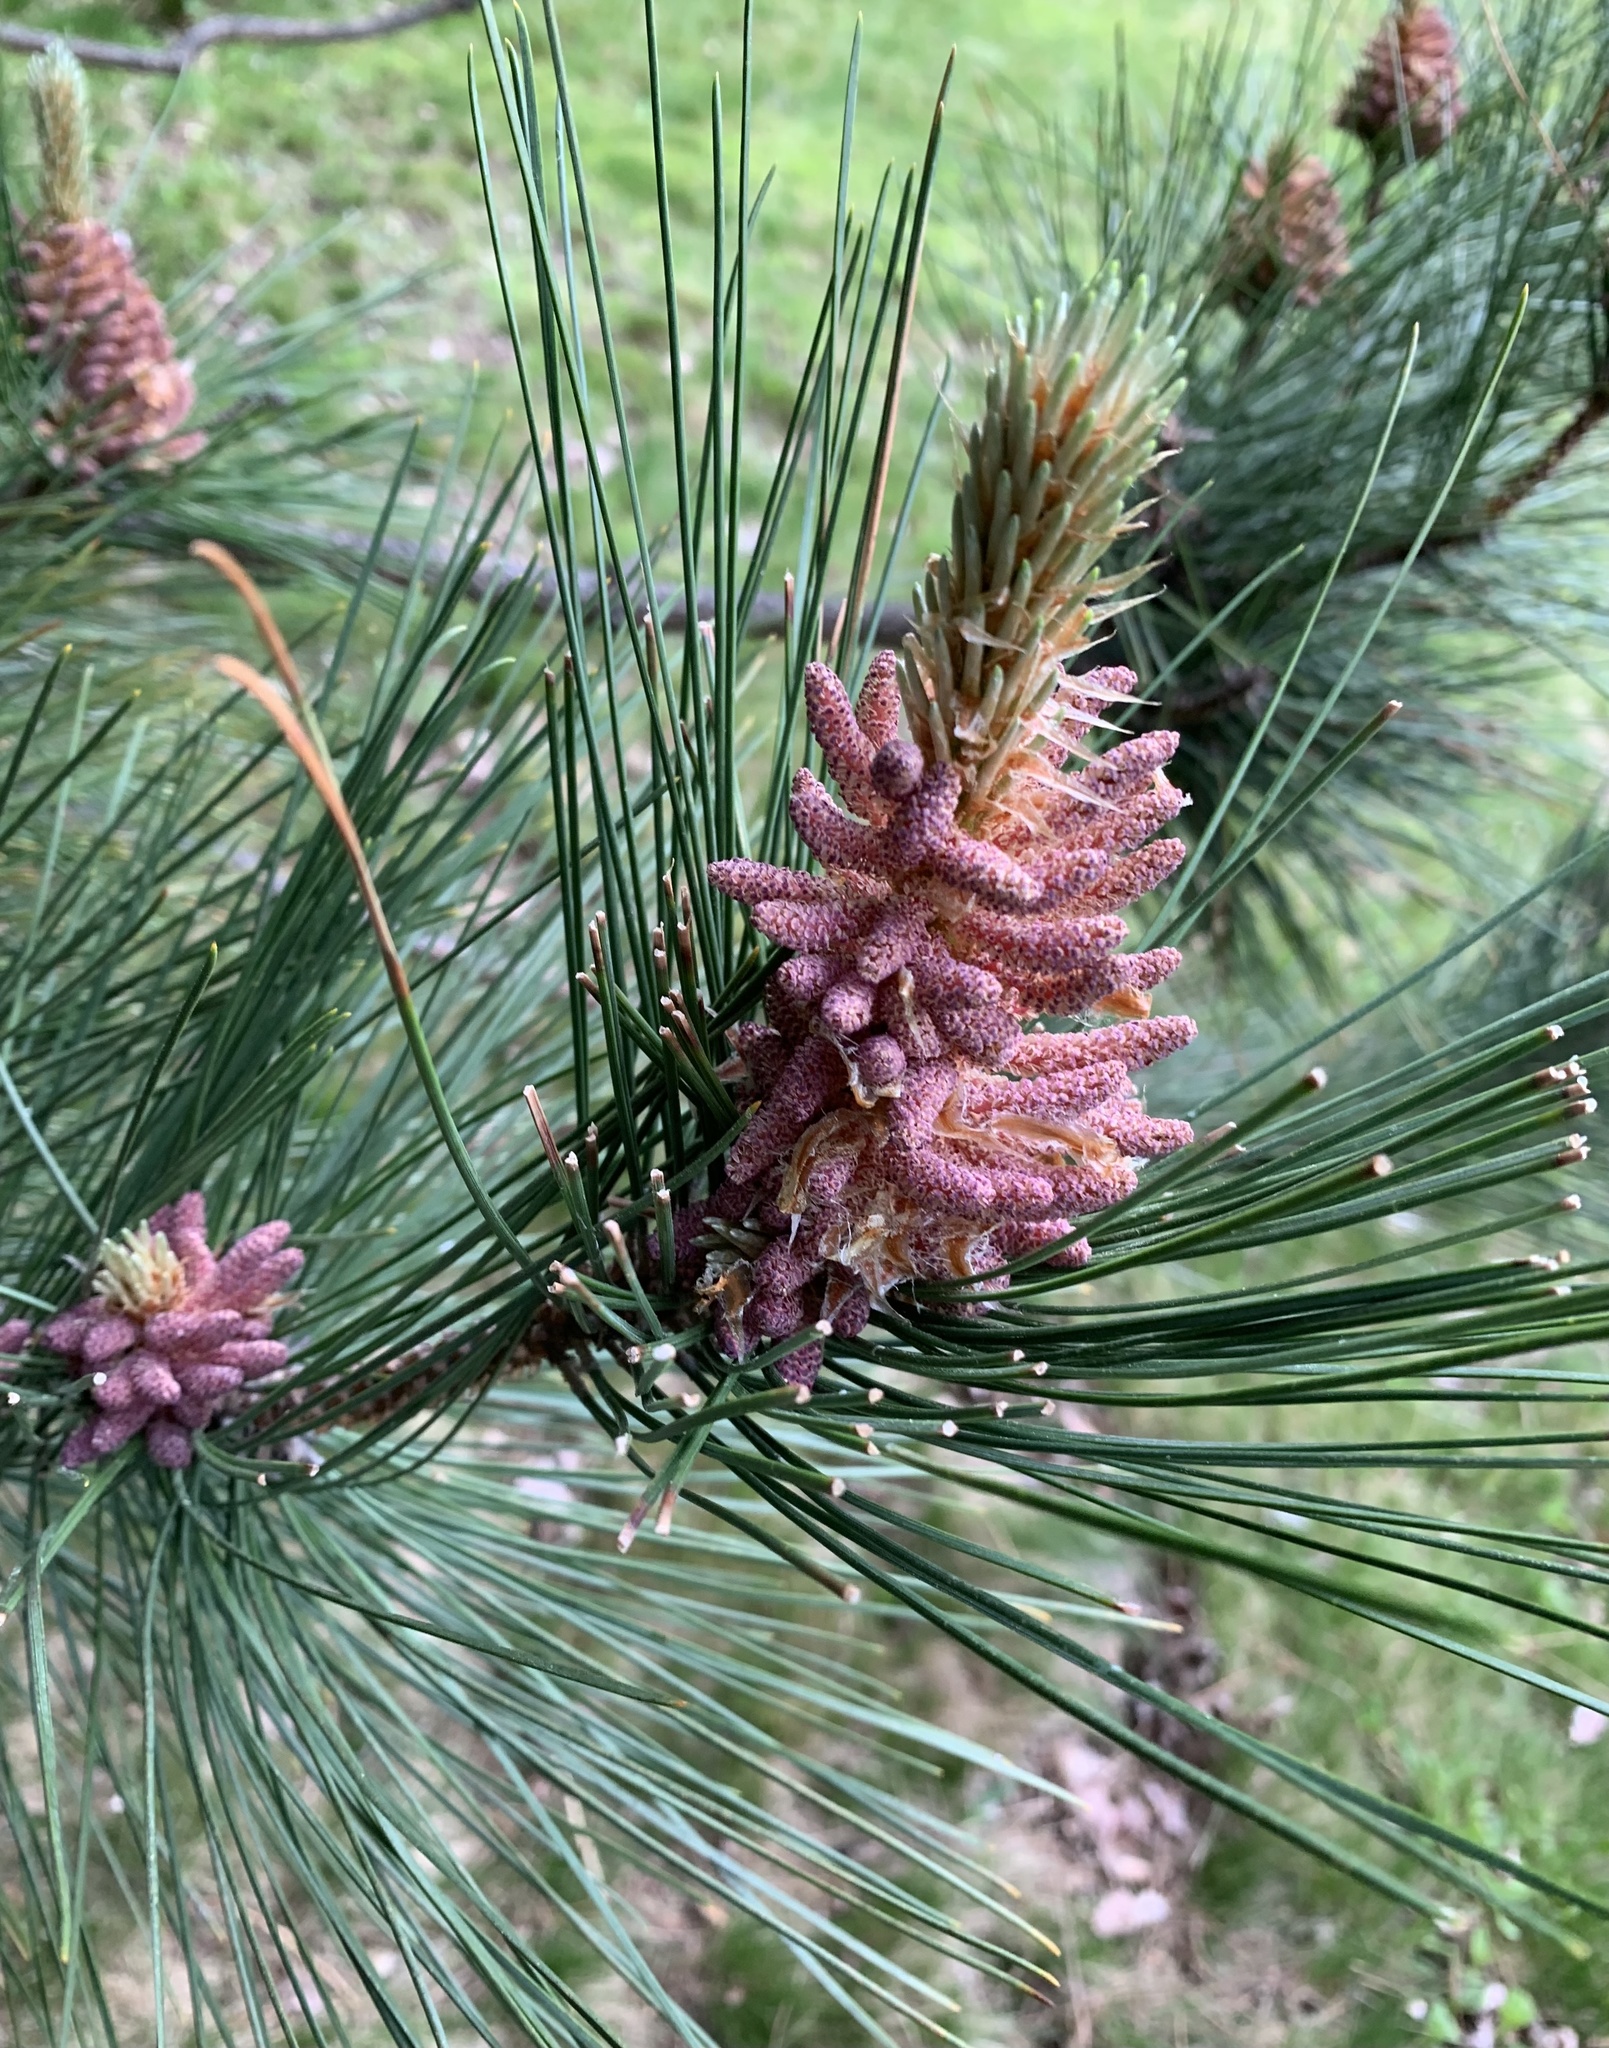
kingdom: Plantae
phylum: Tracheophyta
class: Pinopsida
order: Pinales
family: Pinaceae
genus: Pinus
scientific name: Pinus resinosa
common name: Norway pine
